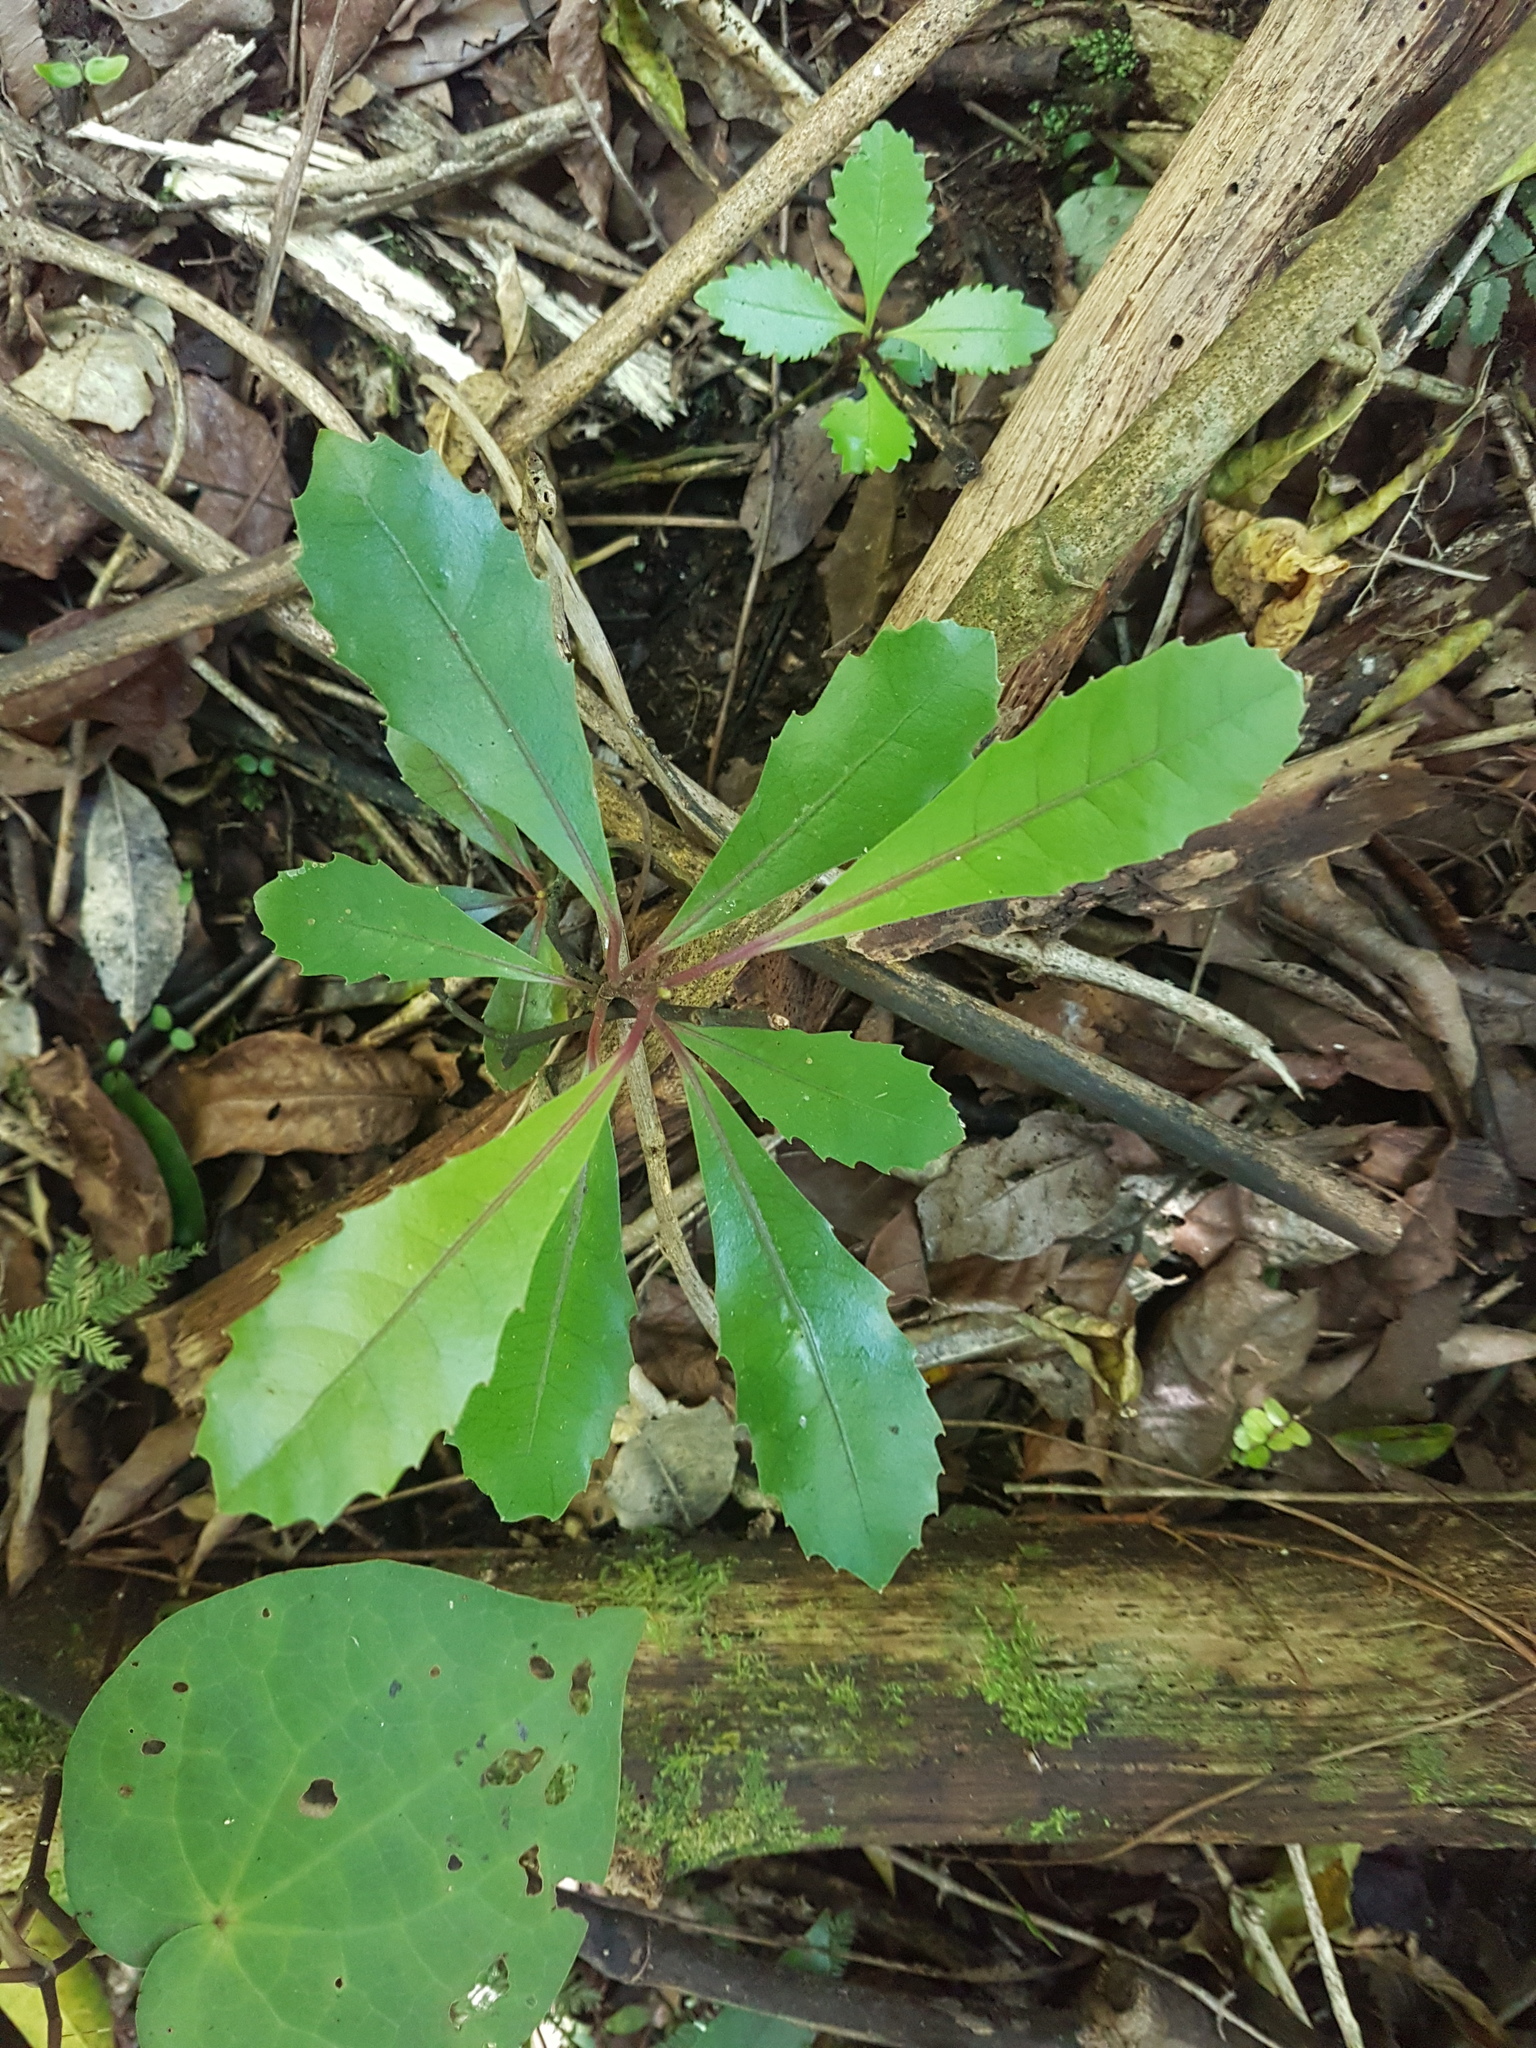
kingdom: Plantae
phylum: Tracheophyta
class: Magnoliopsida
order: Laurales
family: Monimiaceae
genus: Hedycarya
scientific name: Hedycarya arborea
